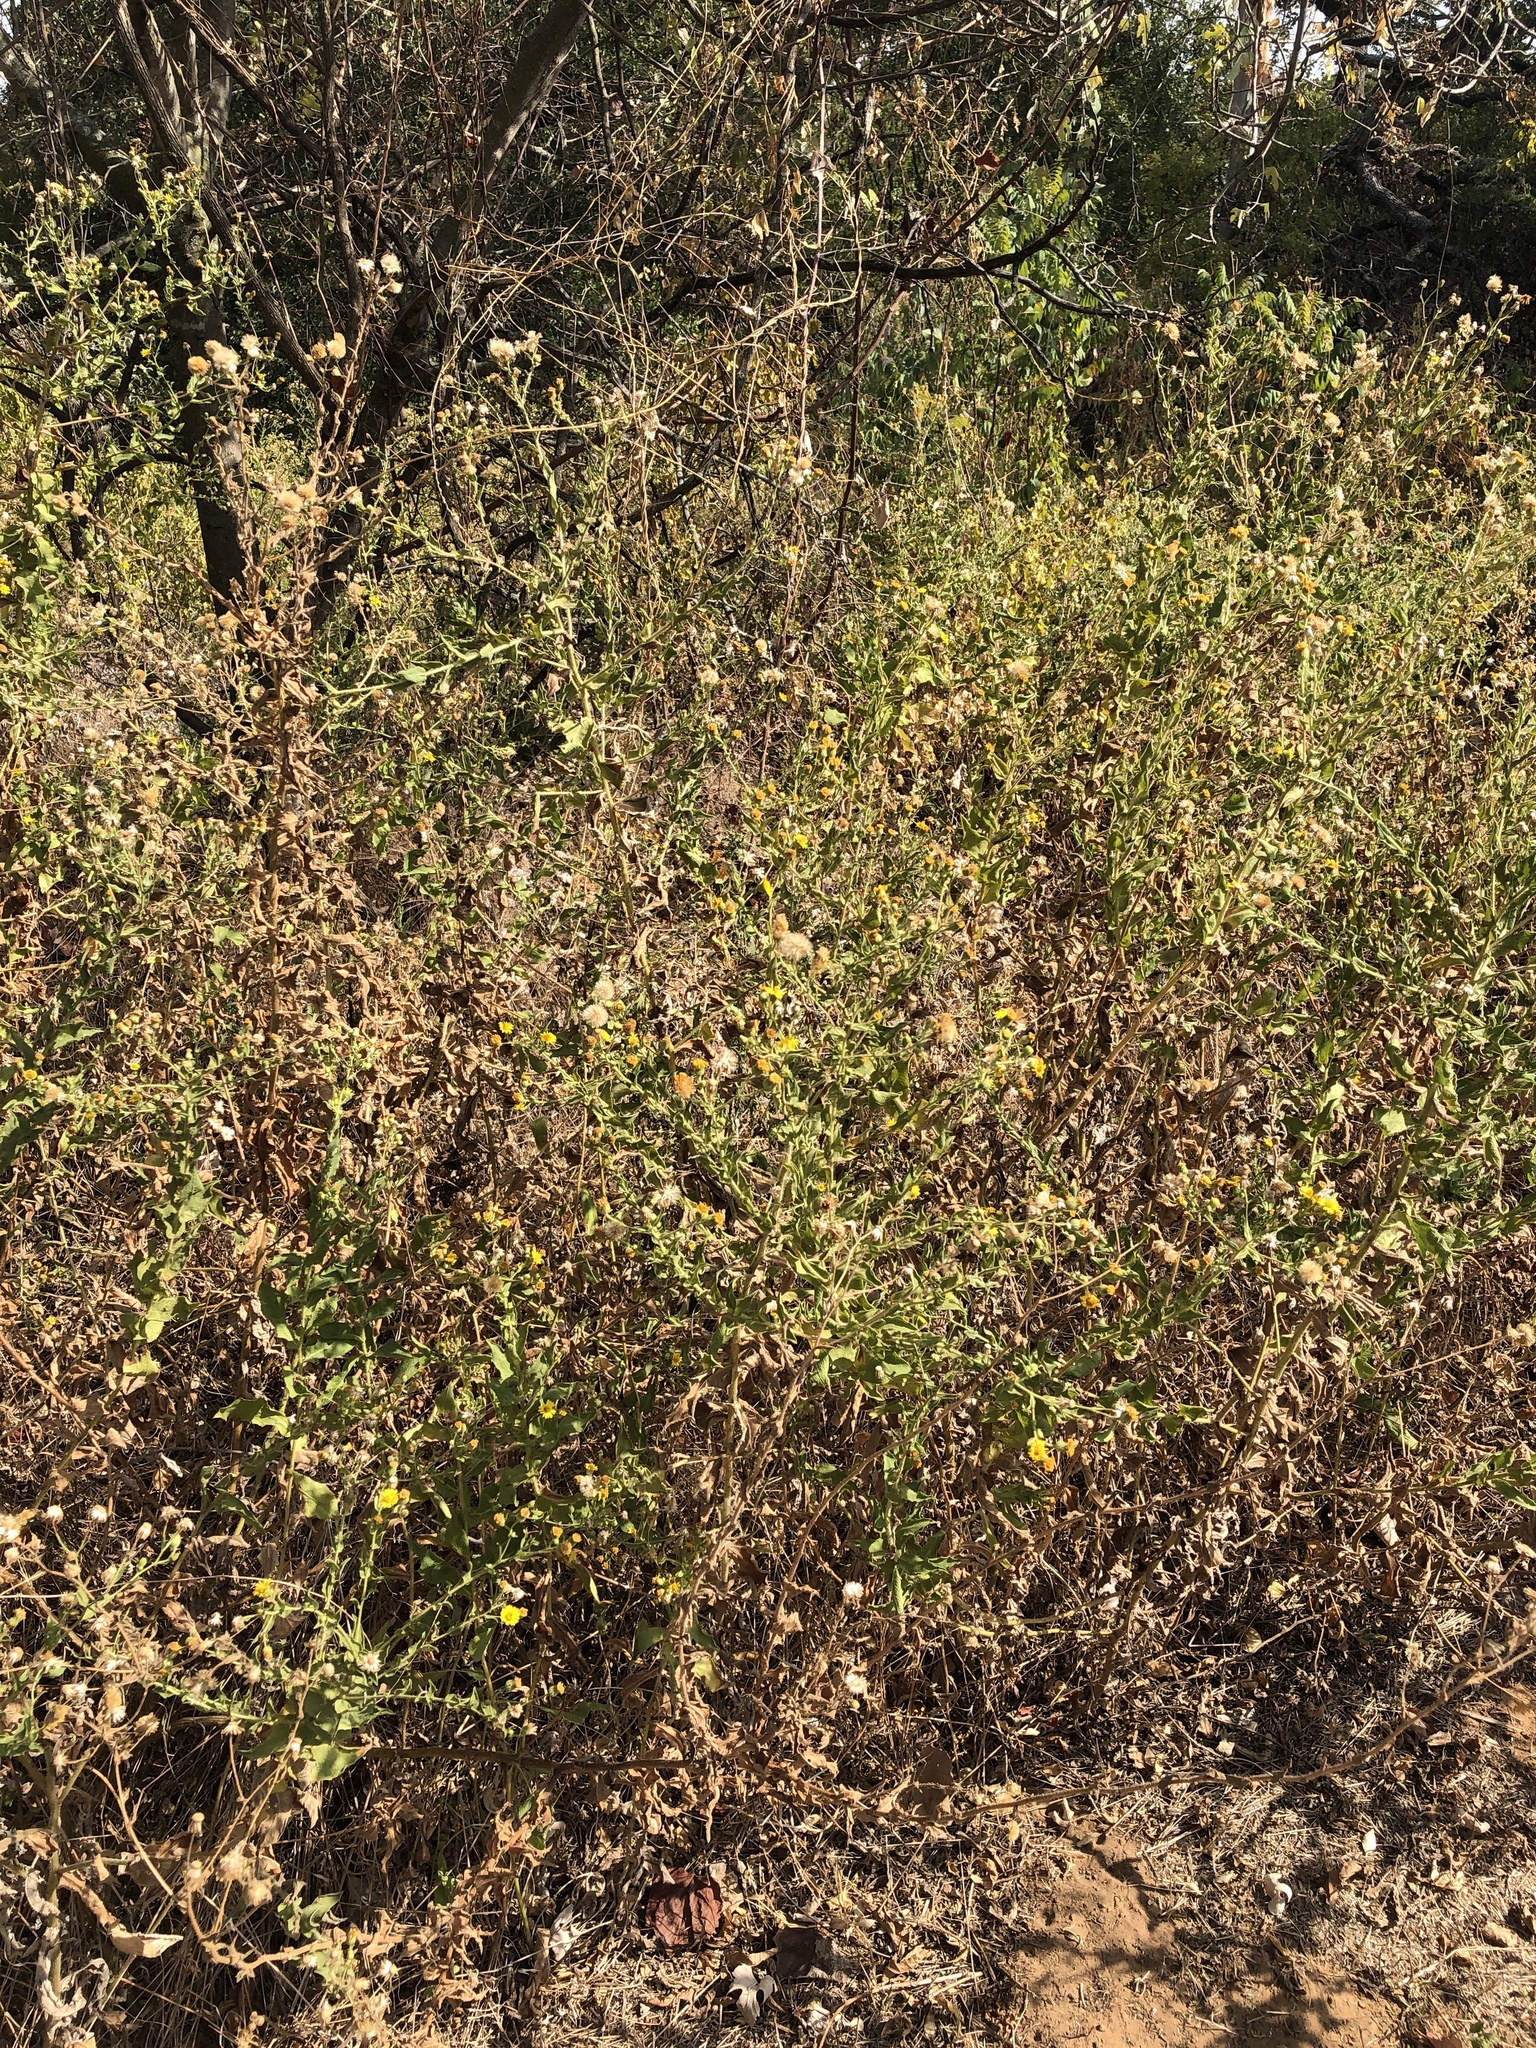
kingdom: Plantae
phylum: Tracheophyta
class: Magnoliopsida
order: Asterales
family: Asteraceae
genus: Heterotheca
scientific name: Heterotheca subaxillaris
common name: Camphorweed
